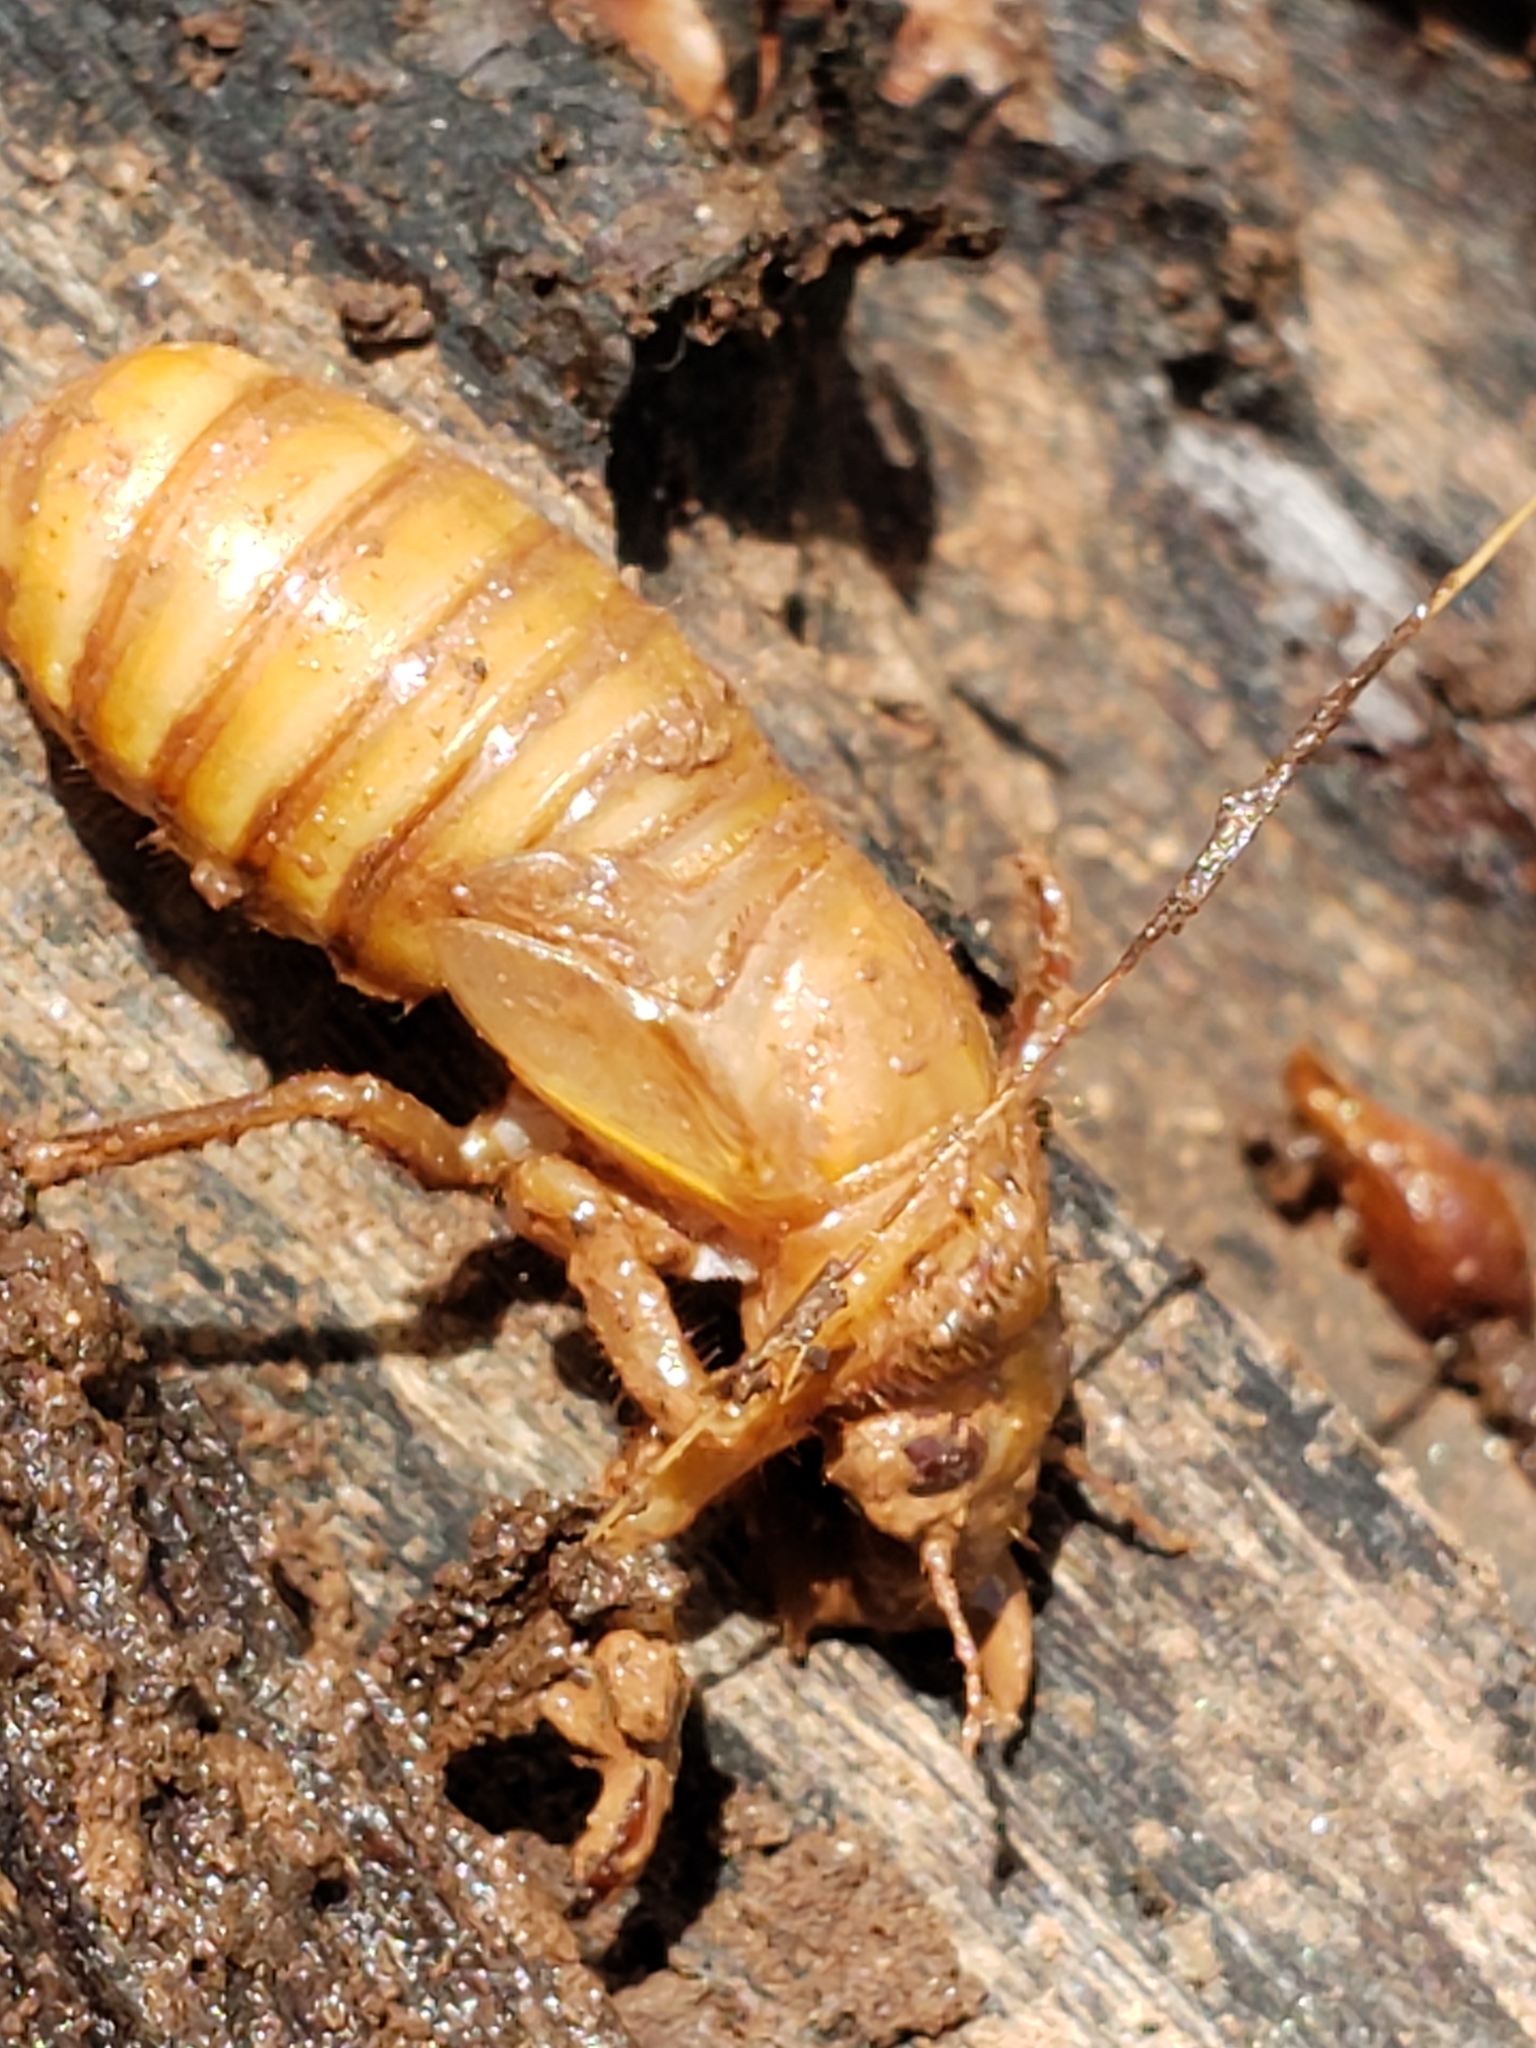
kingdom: Animalia
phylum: Arthropoda
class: Insecta
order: Hemiptera
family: Cicadidae
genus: Magicicada
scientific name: Magicicada
